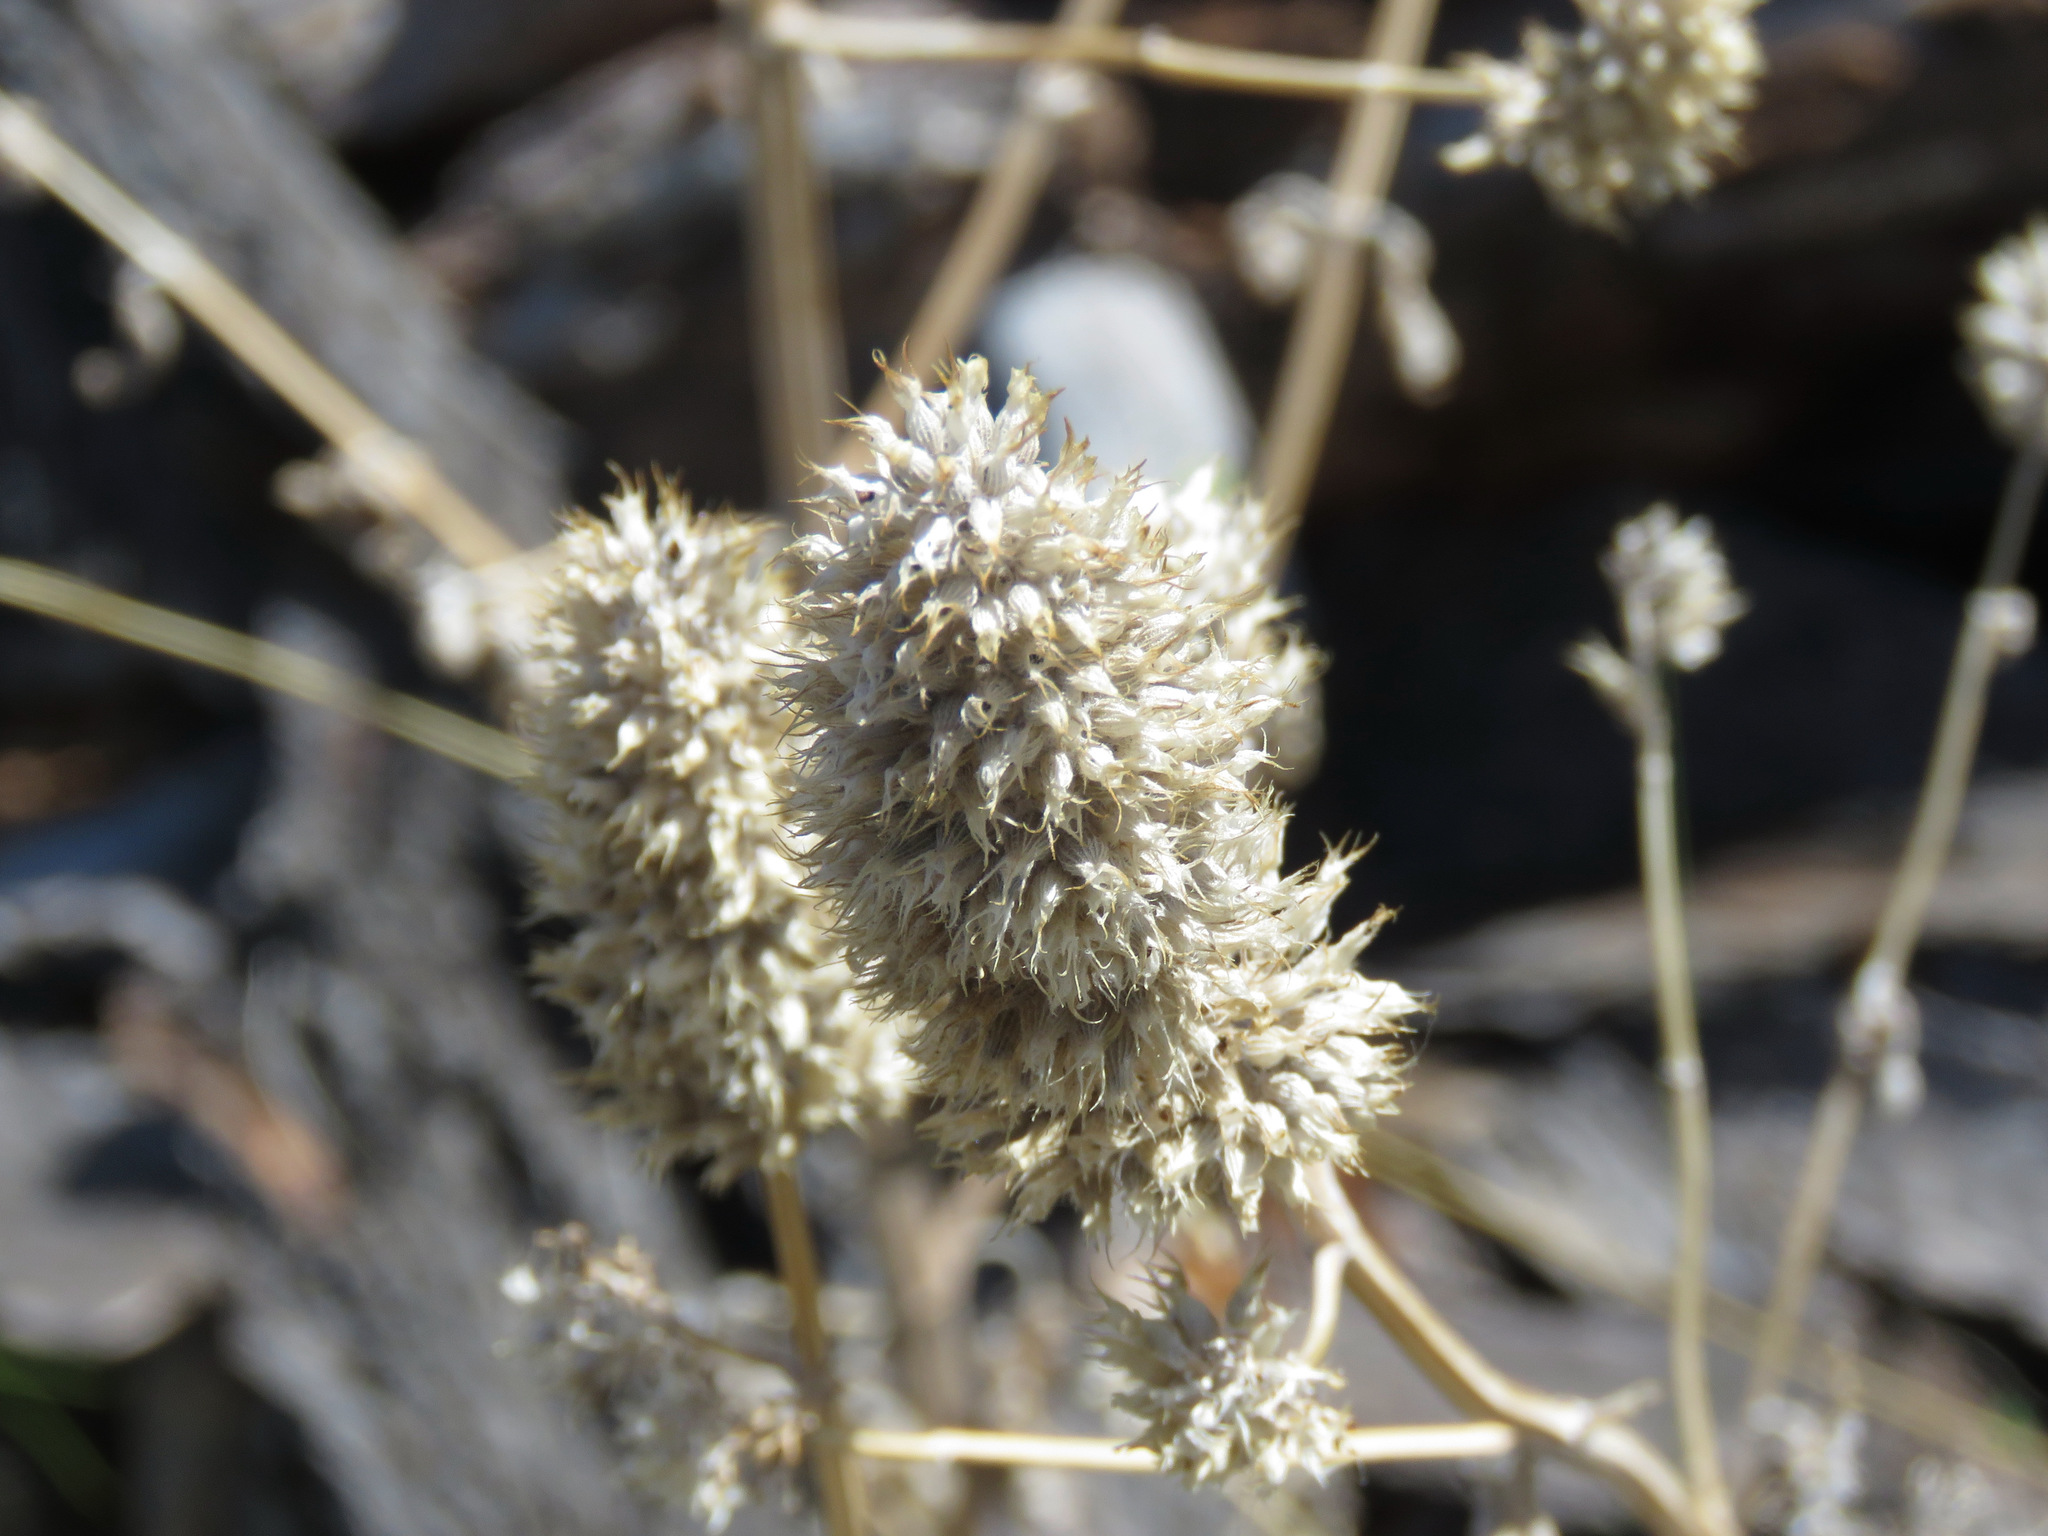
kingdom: Plantae
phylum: Tracheophyta
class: Magnoliopsida
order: Lamiales
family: Lamiaceae
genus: Nepeta
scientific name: Nepeta cataria
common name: Catnip
